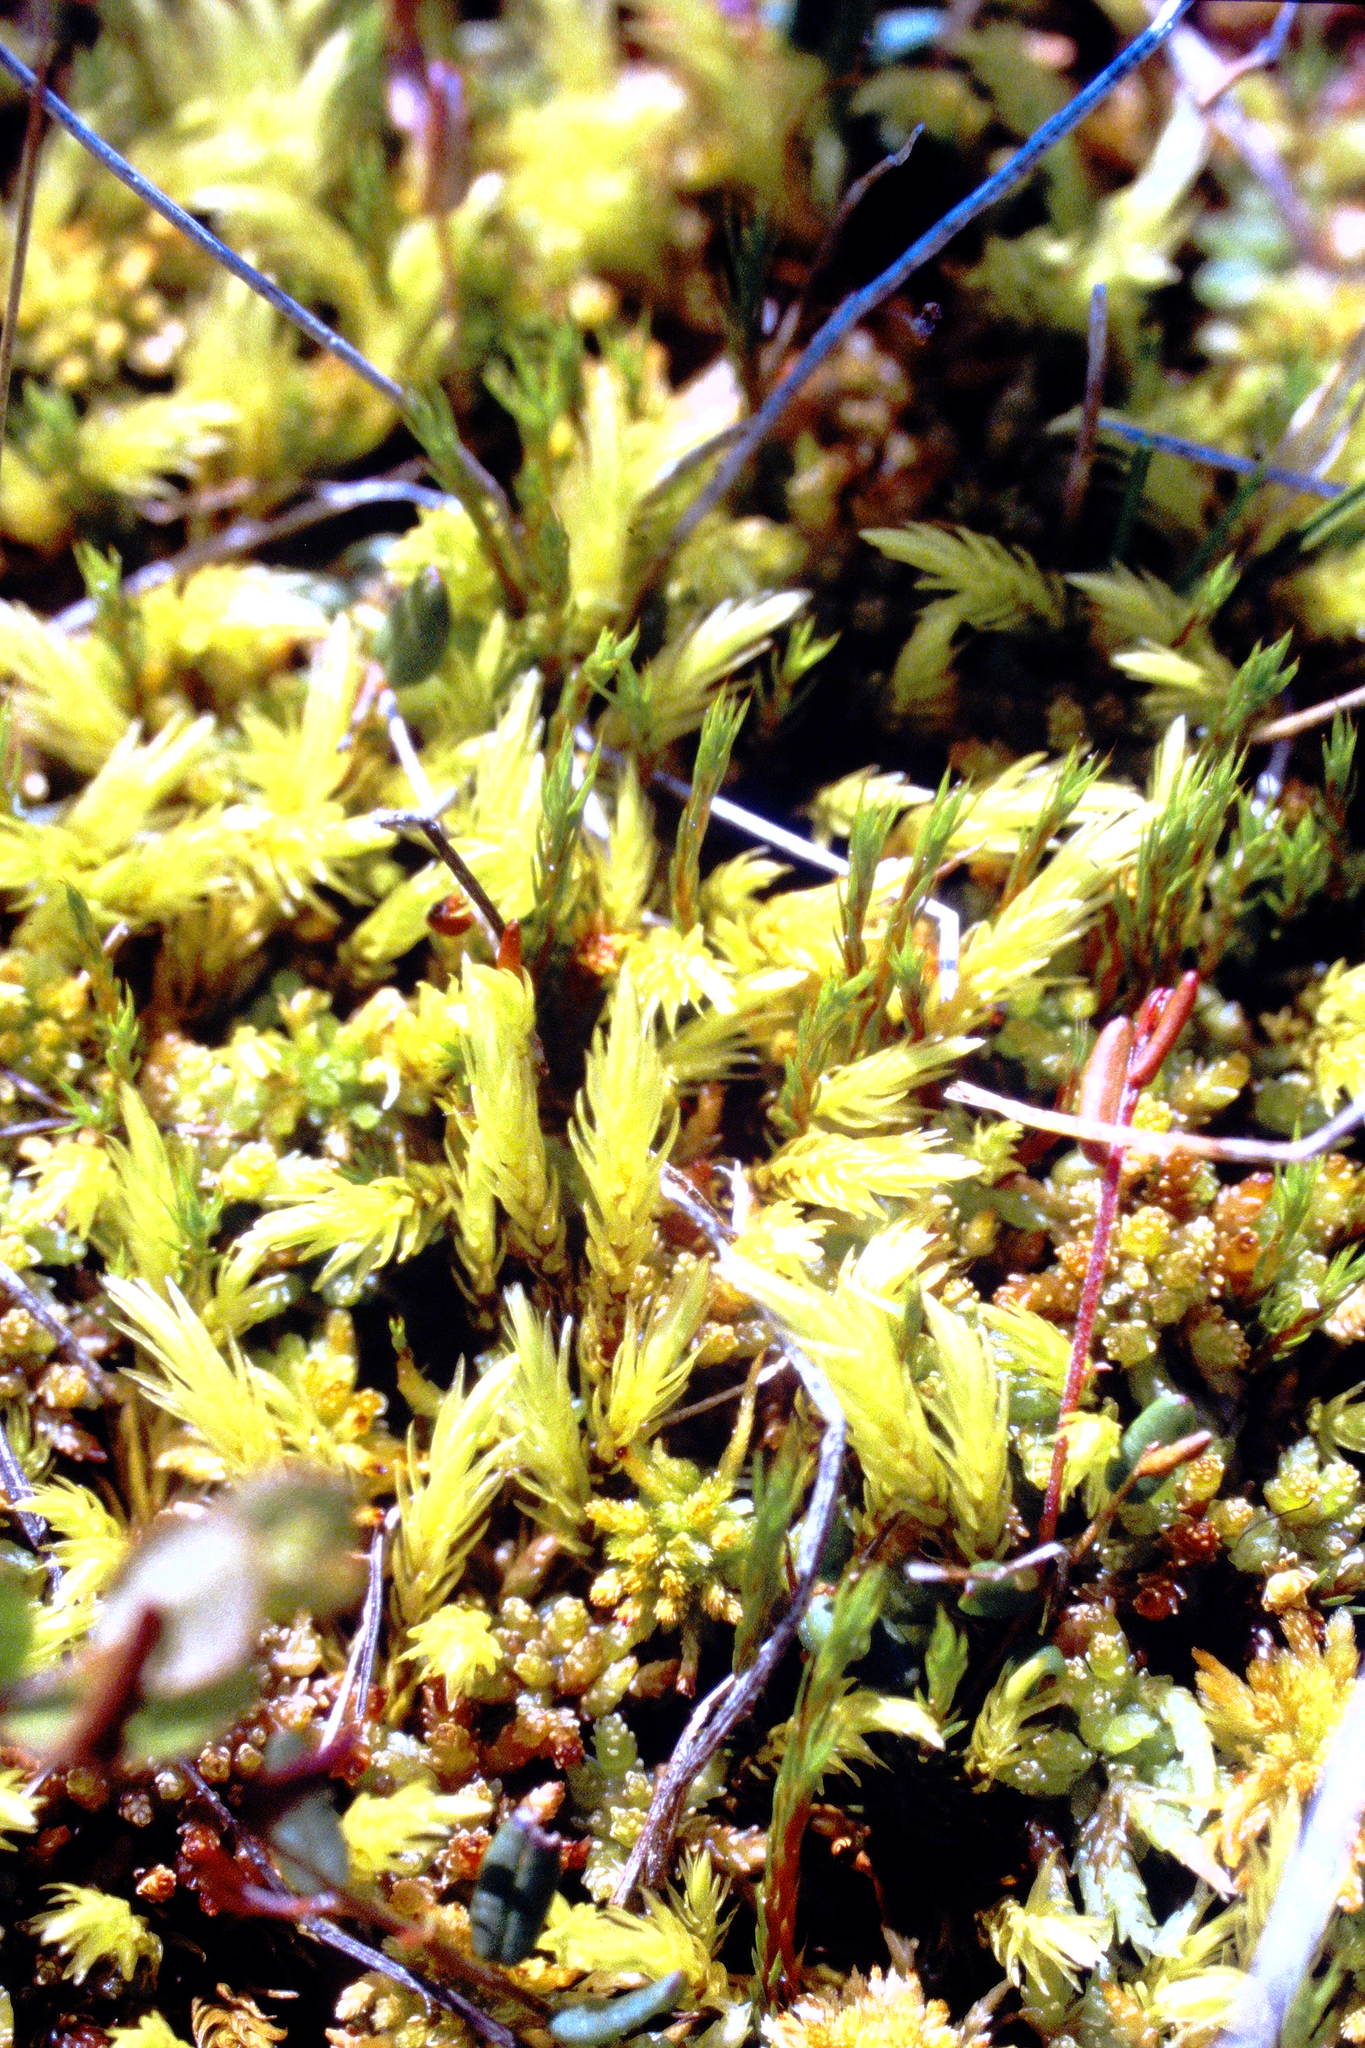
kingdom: Plantae
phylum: Bryophyta
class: Bryopsida
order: Aulacomniales
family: Aulacomniaceae
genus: Aulacomnium
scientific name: Aulacomnium palustre
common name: Bog groove-moss
